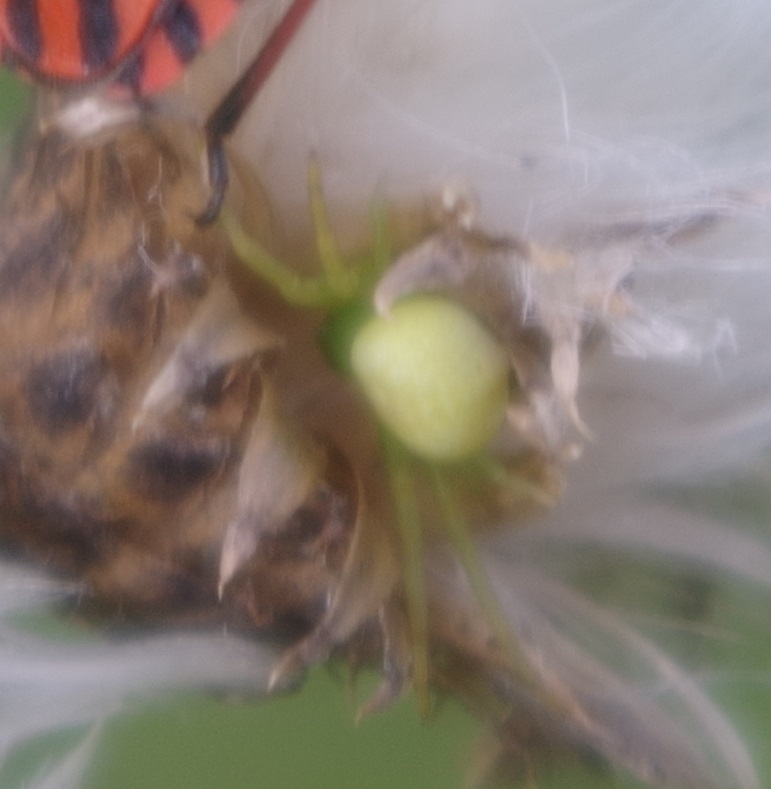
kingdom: Animalia
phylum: Arthropoda
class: Arachnida
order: Araneae
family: Thomisidae
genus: Ebrechtella
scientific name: Ebrechtella tricuspidata
